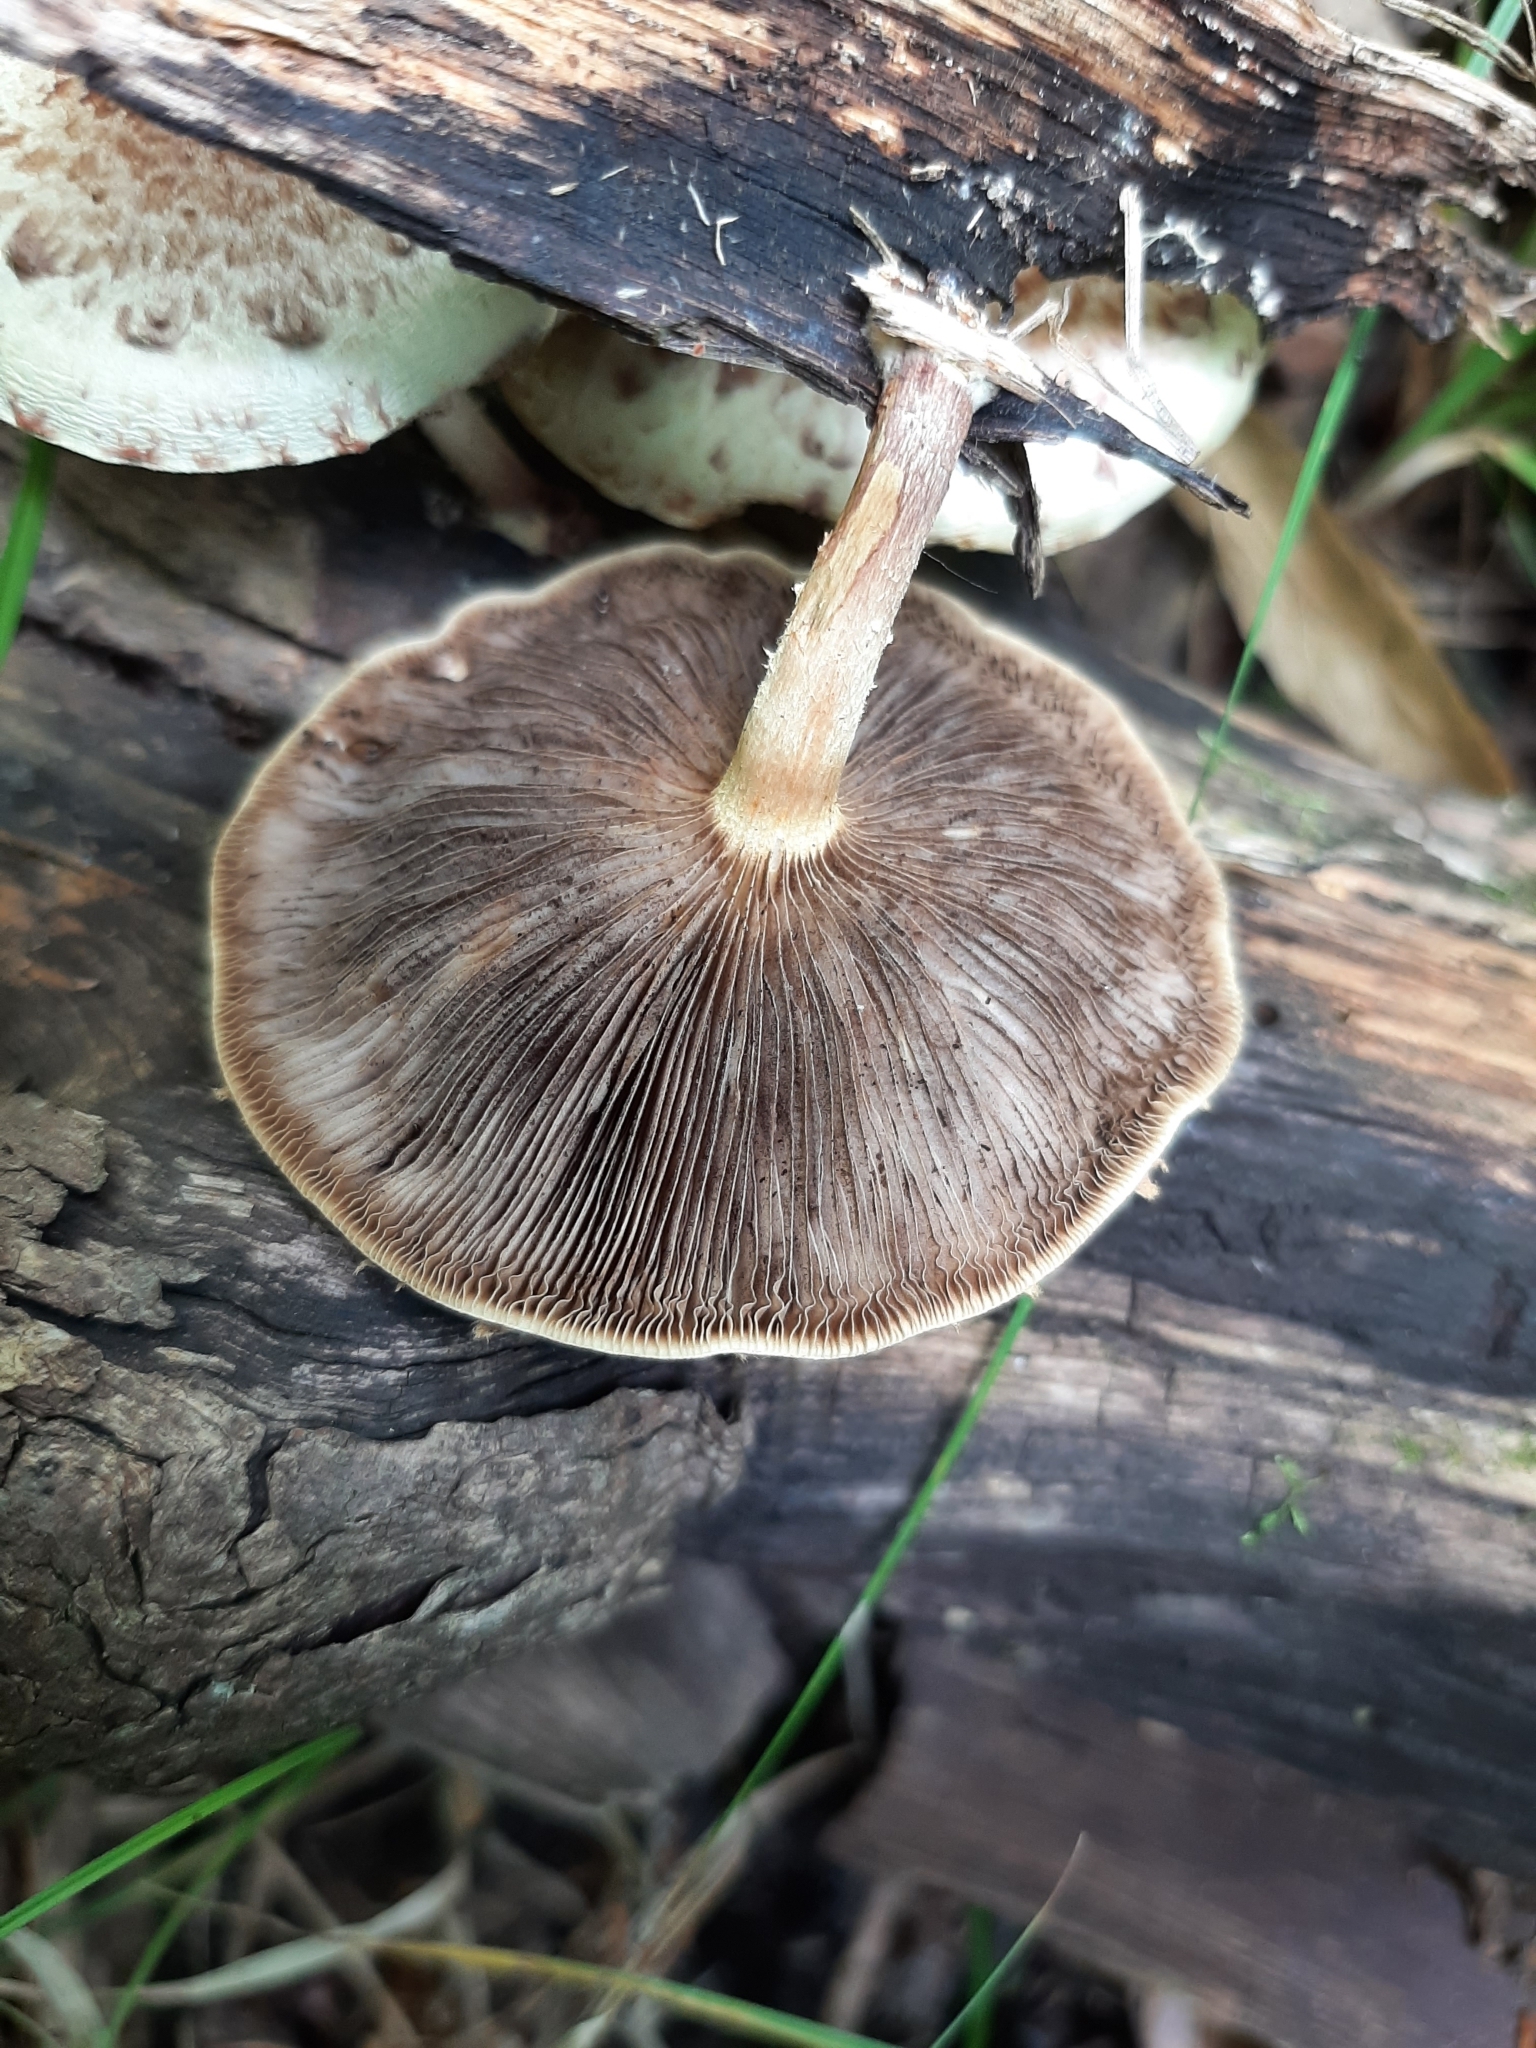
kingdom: Fungi
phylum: Basidiomycota
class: Agaricomycetes
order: Agaricales
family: Strophariaceae
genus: Pholiota
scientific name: Pholiota polychroa
